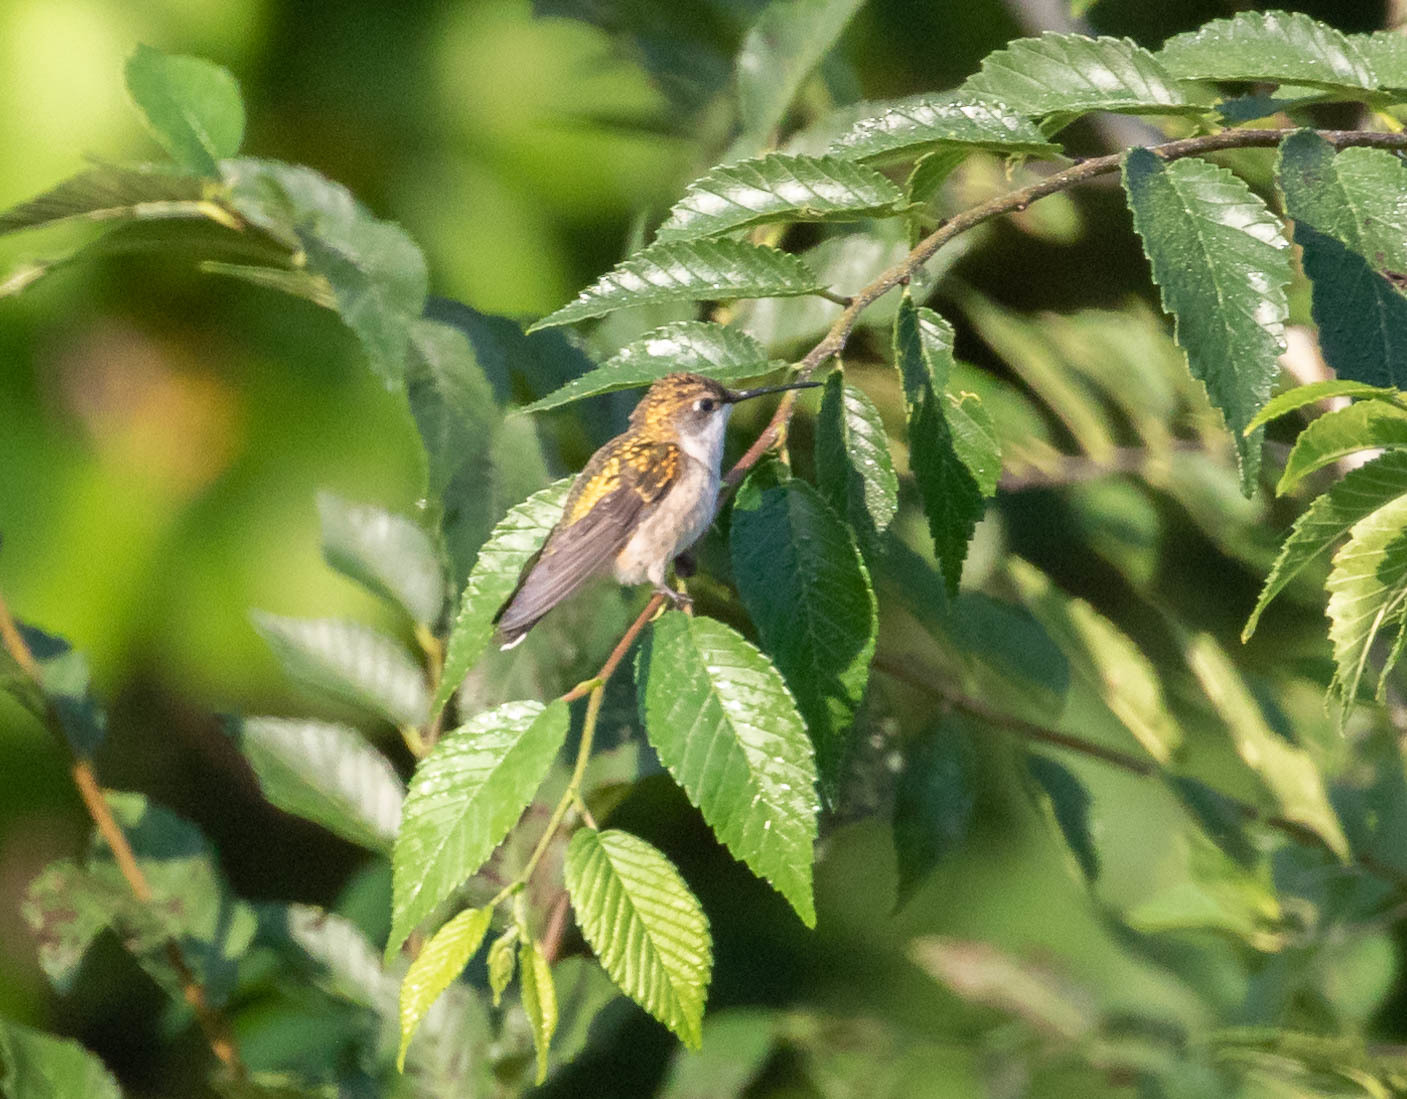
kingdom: Animalia
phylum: Chordata
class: Aves
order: Apodiformes
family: Trochilidae
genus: Archilochus
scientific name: Archilochus colubris
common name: Ruby-throated hummingbird
